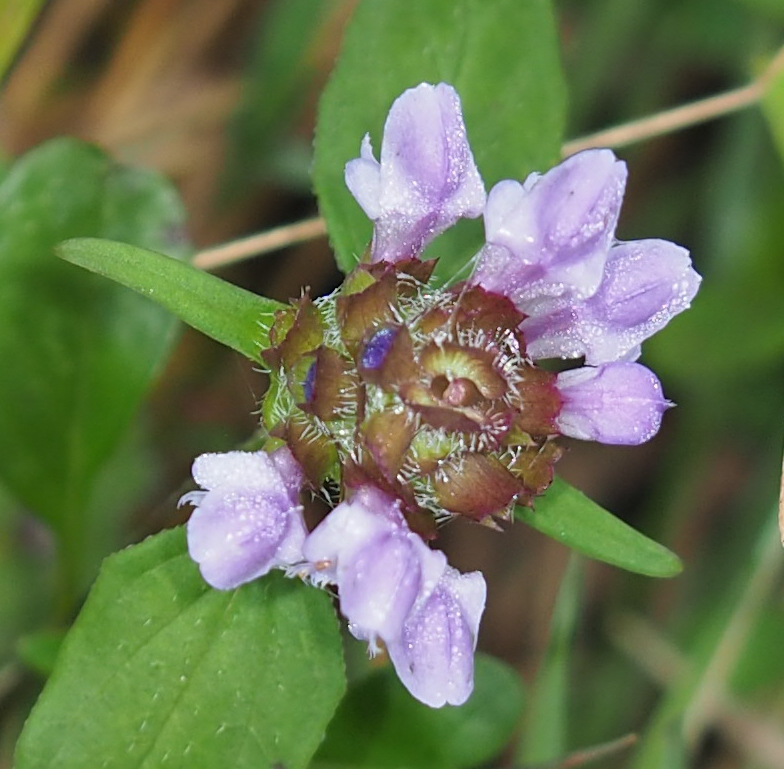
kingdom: Plantae
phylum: Tracheophyta
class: Magnoliopsida
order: Lamiales
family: Lamiaceae
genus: Prunella
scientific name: Prunella vulgaris
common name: Heal-all
